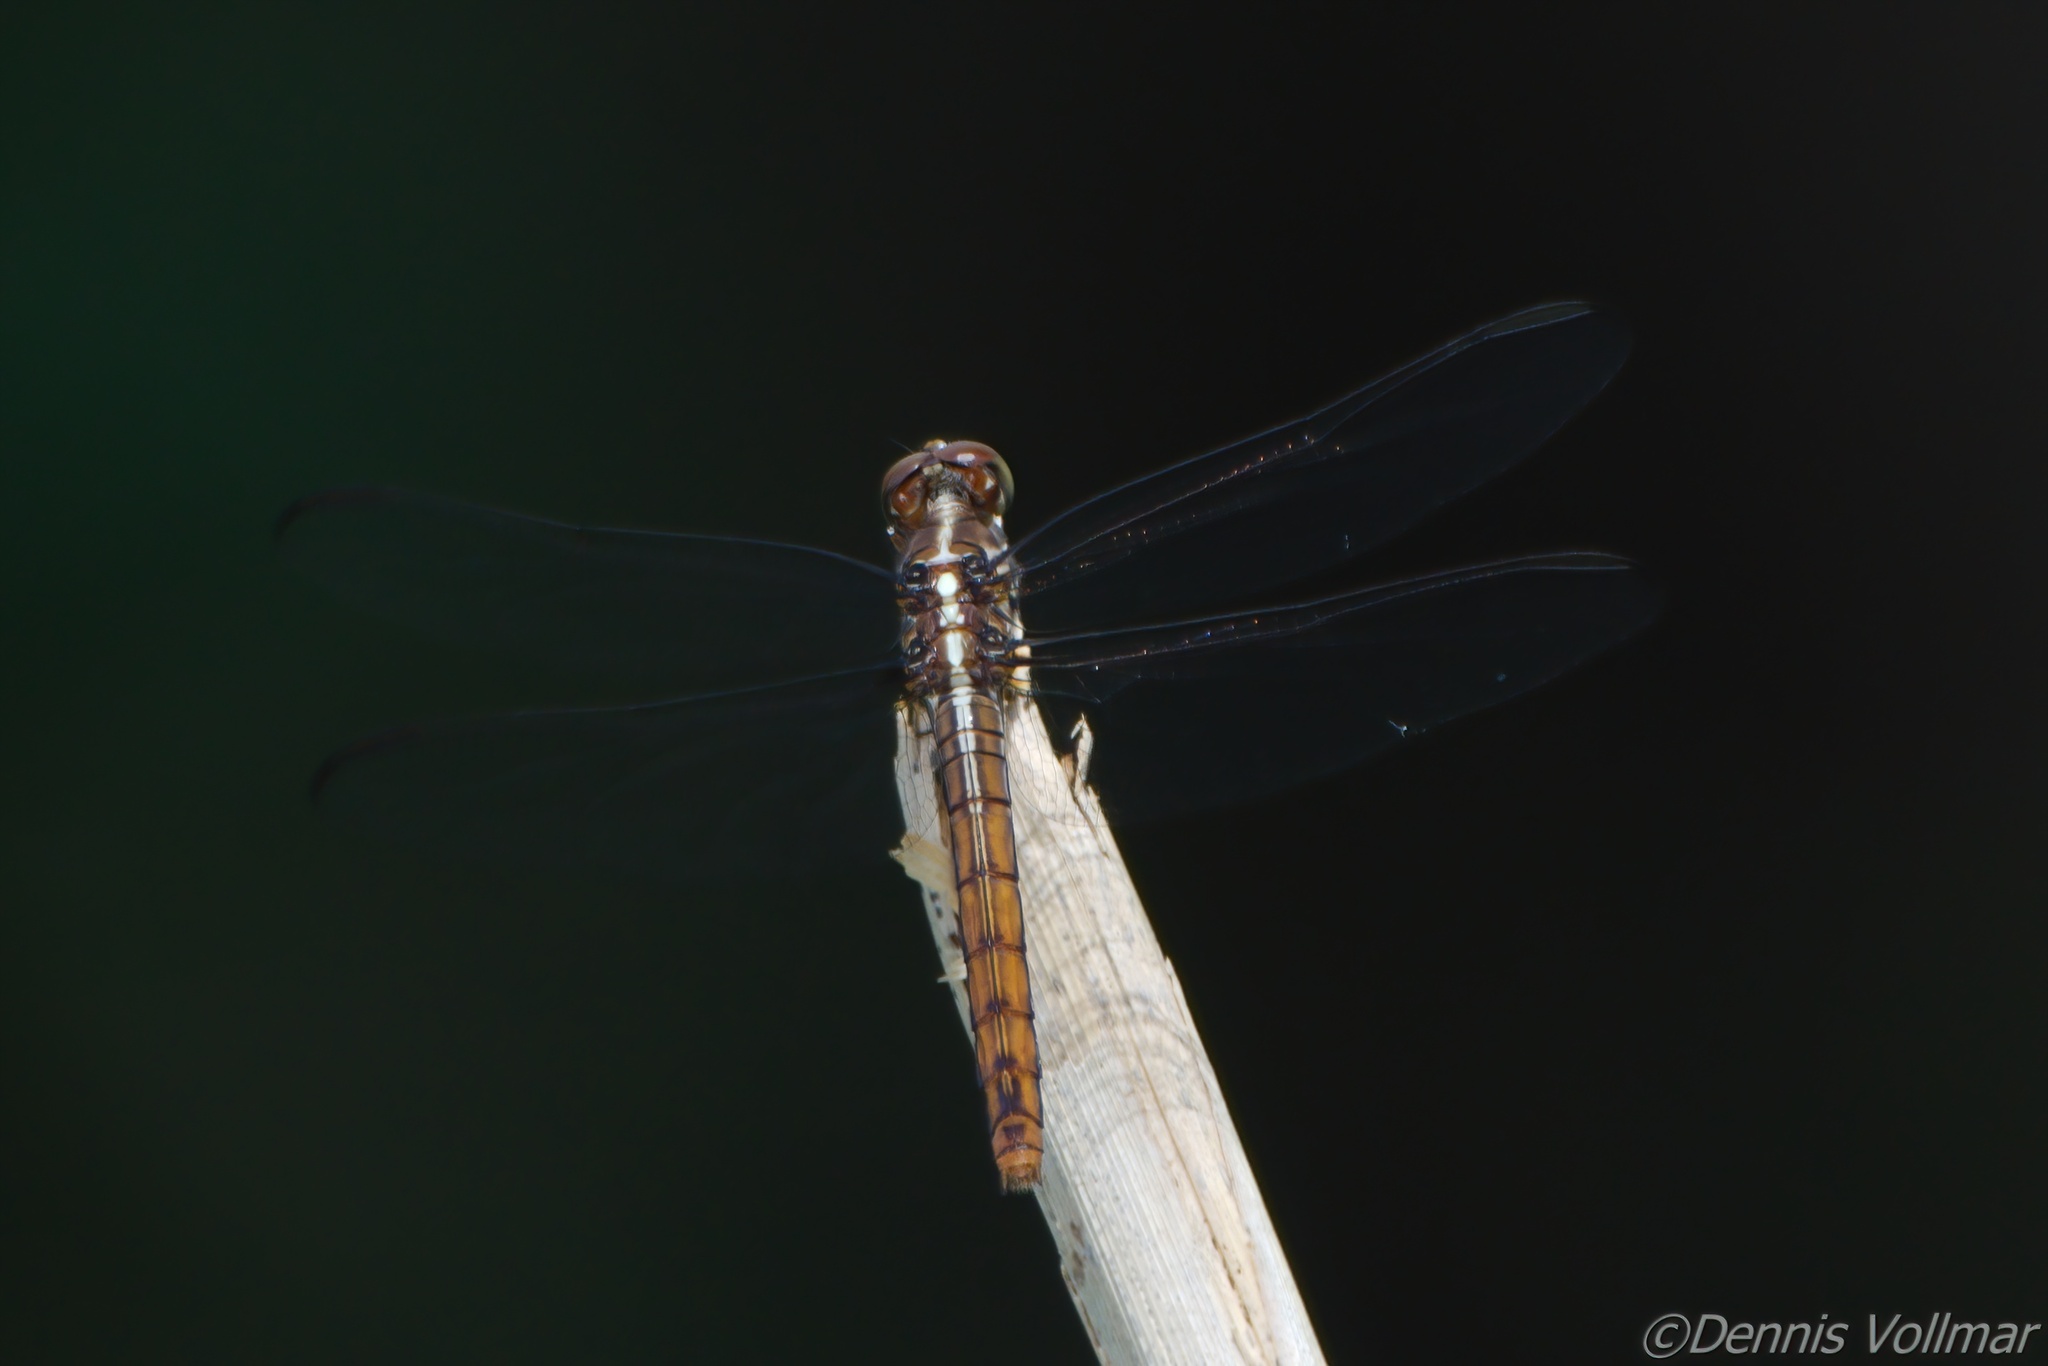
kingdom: Animalia
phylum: Arthropoda
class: Insecta
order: Odonata
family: Libellulidae
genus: Orthemis
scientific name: Orthemis ferruginea
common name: Roseate skimmer
